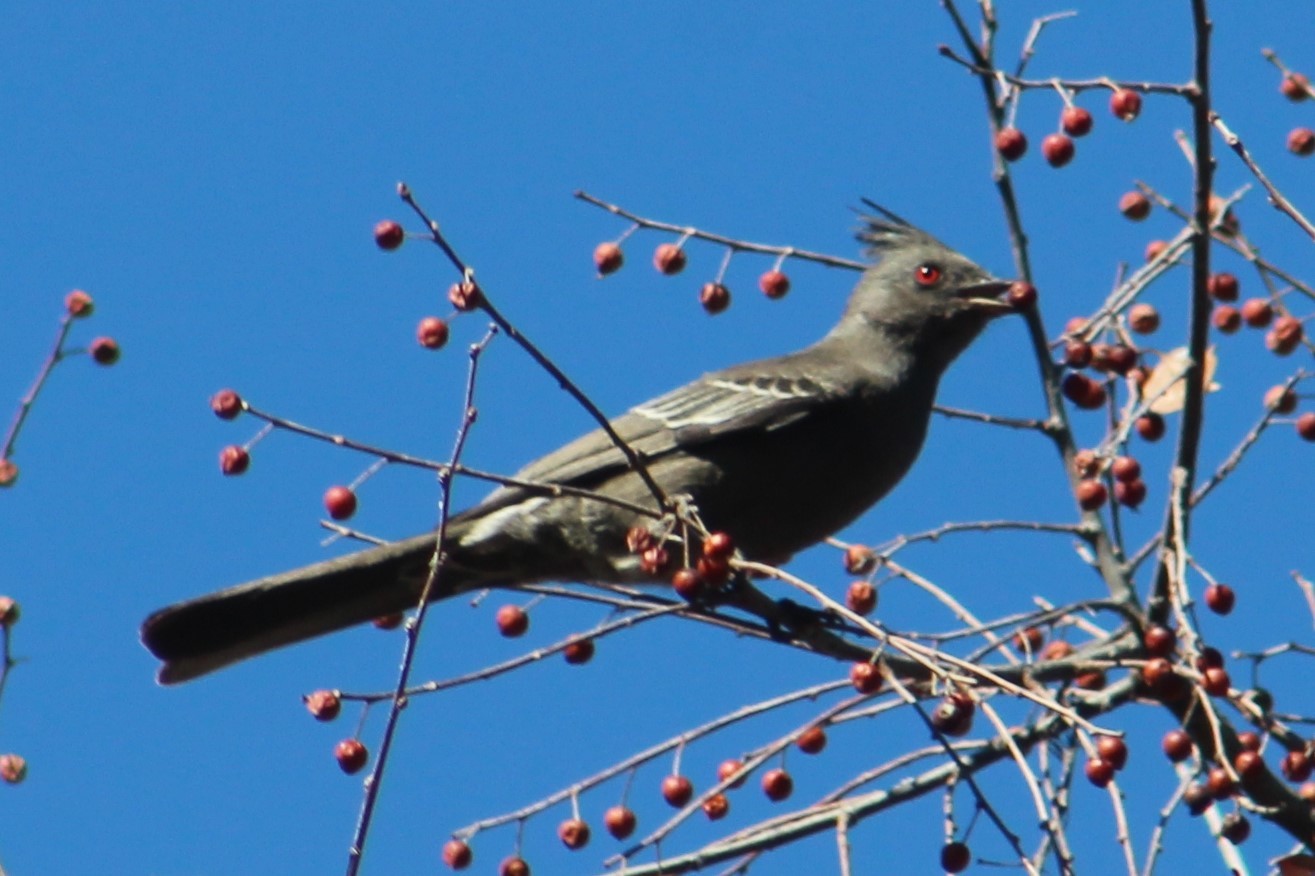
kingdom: Animalia
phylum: Chordata
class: Aves
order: Passeriformes
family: Ptilogonatidae
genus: Phainopepla
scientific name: Phainopepla nitens
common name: Phainopepla
